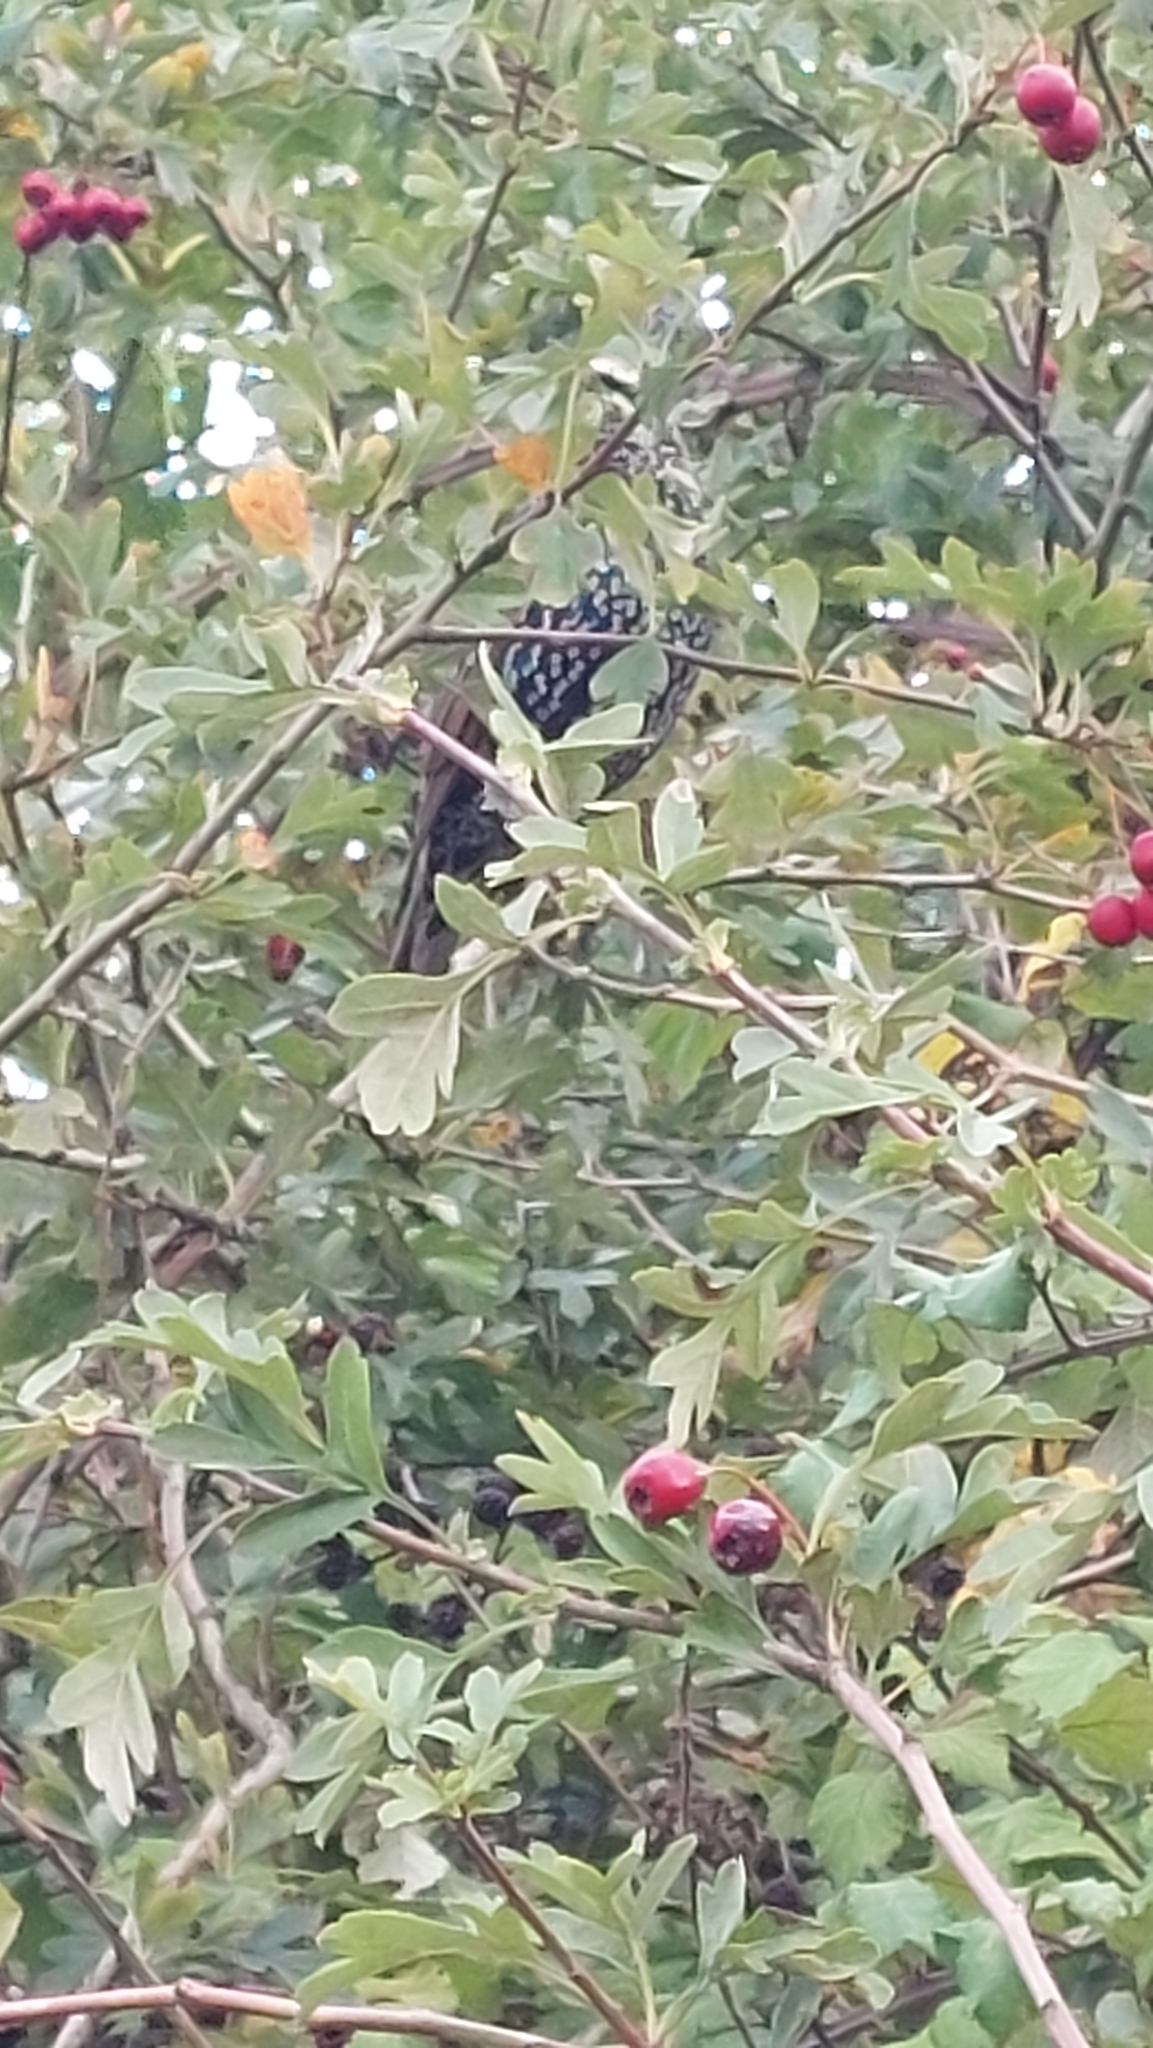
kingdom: Animalia
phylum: Chordata
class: Aves
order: Passeriformes
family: Sturnidae
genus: Sturnus
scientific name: Sturnus vulgaris
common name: Common starling
